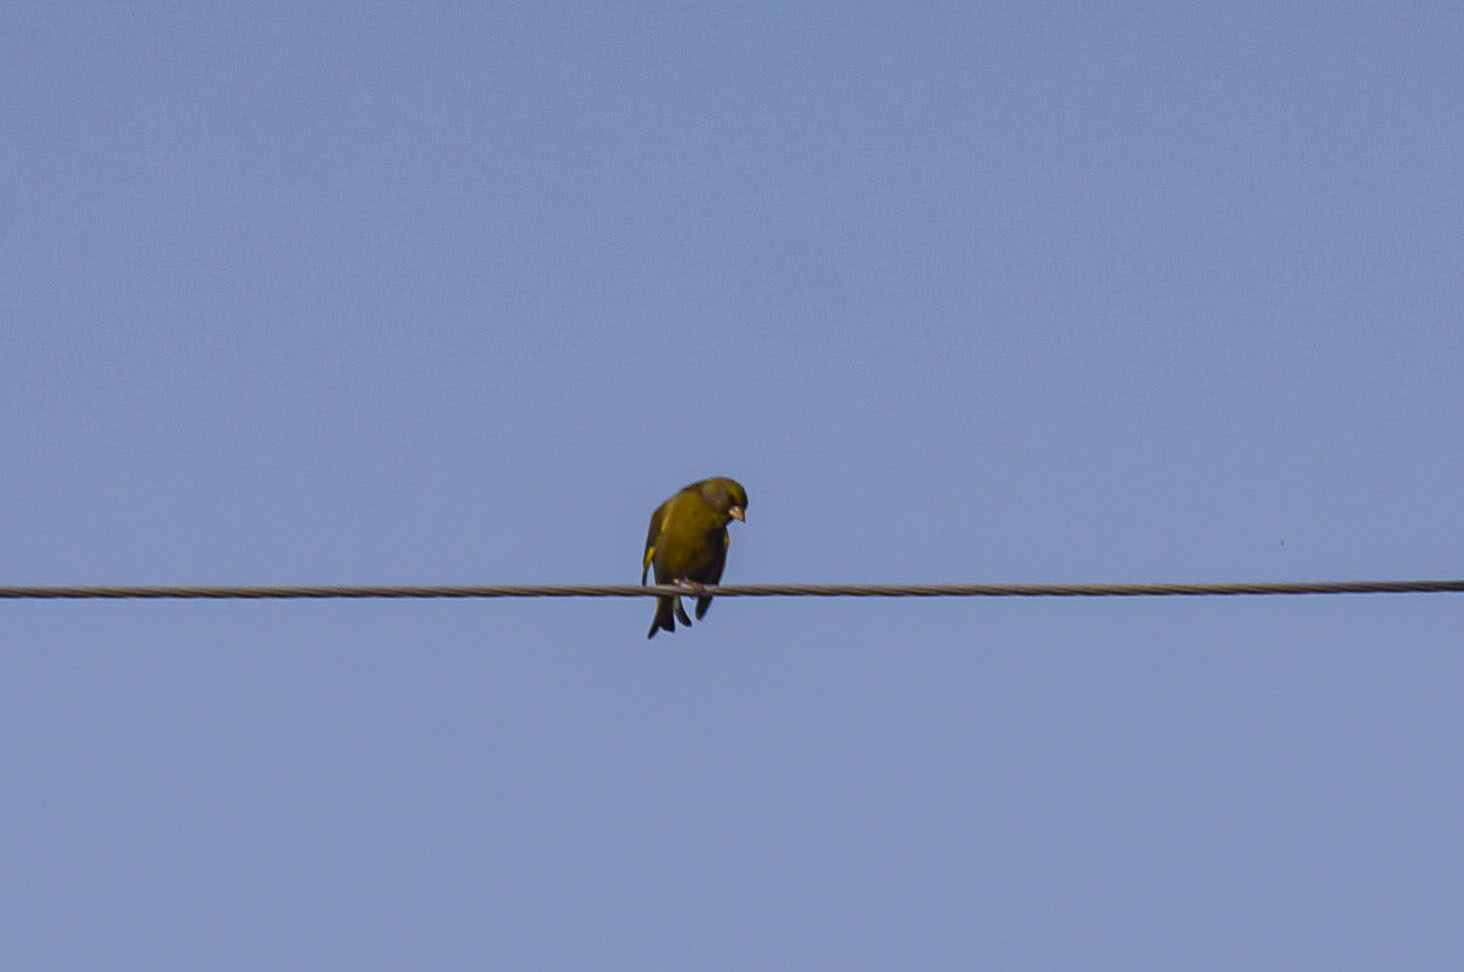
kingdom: Plantae
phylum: Tracheophyta
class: Liliopsida
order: Poales
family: Poaceae
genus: Chloris
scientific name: Chloris chloris
